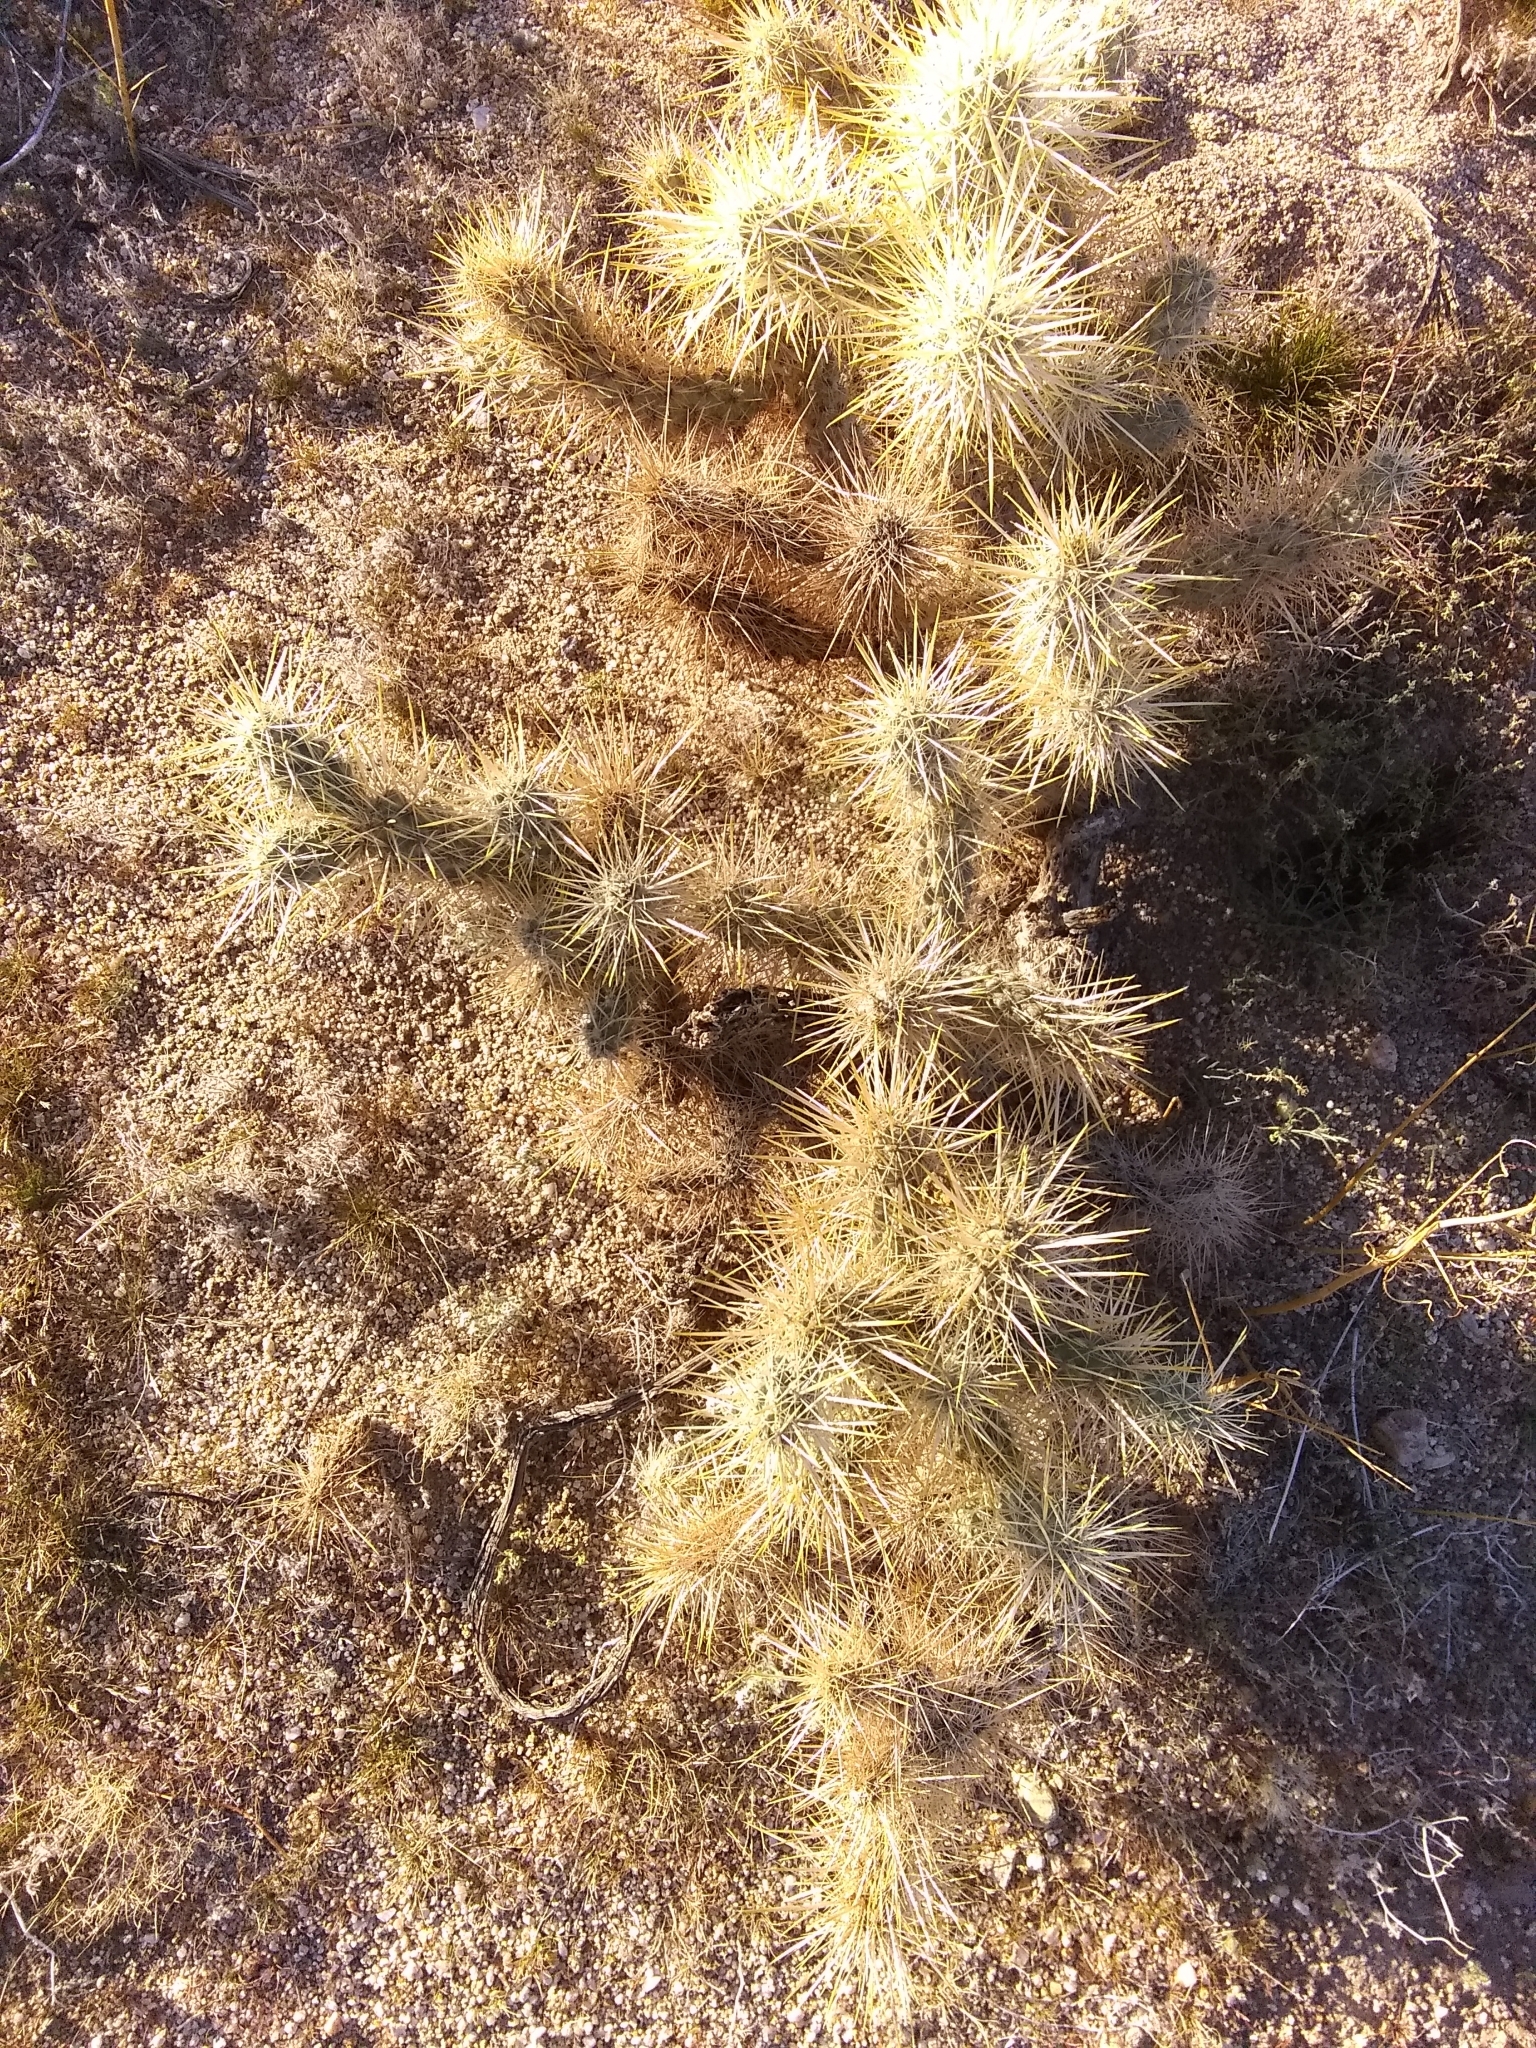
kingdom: Plantae
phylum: Tracheophyta
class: Magnoliopsida
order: Caryophyllales
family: Cactaceae
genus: Cylindropuntia
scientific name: Cylindropuntia echinocarpa
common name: Ground cholla
